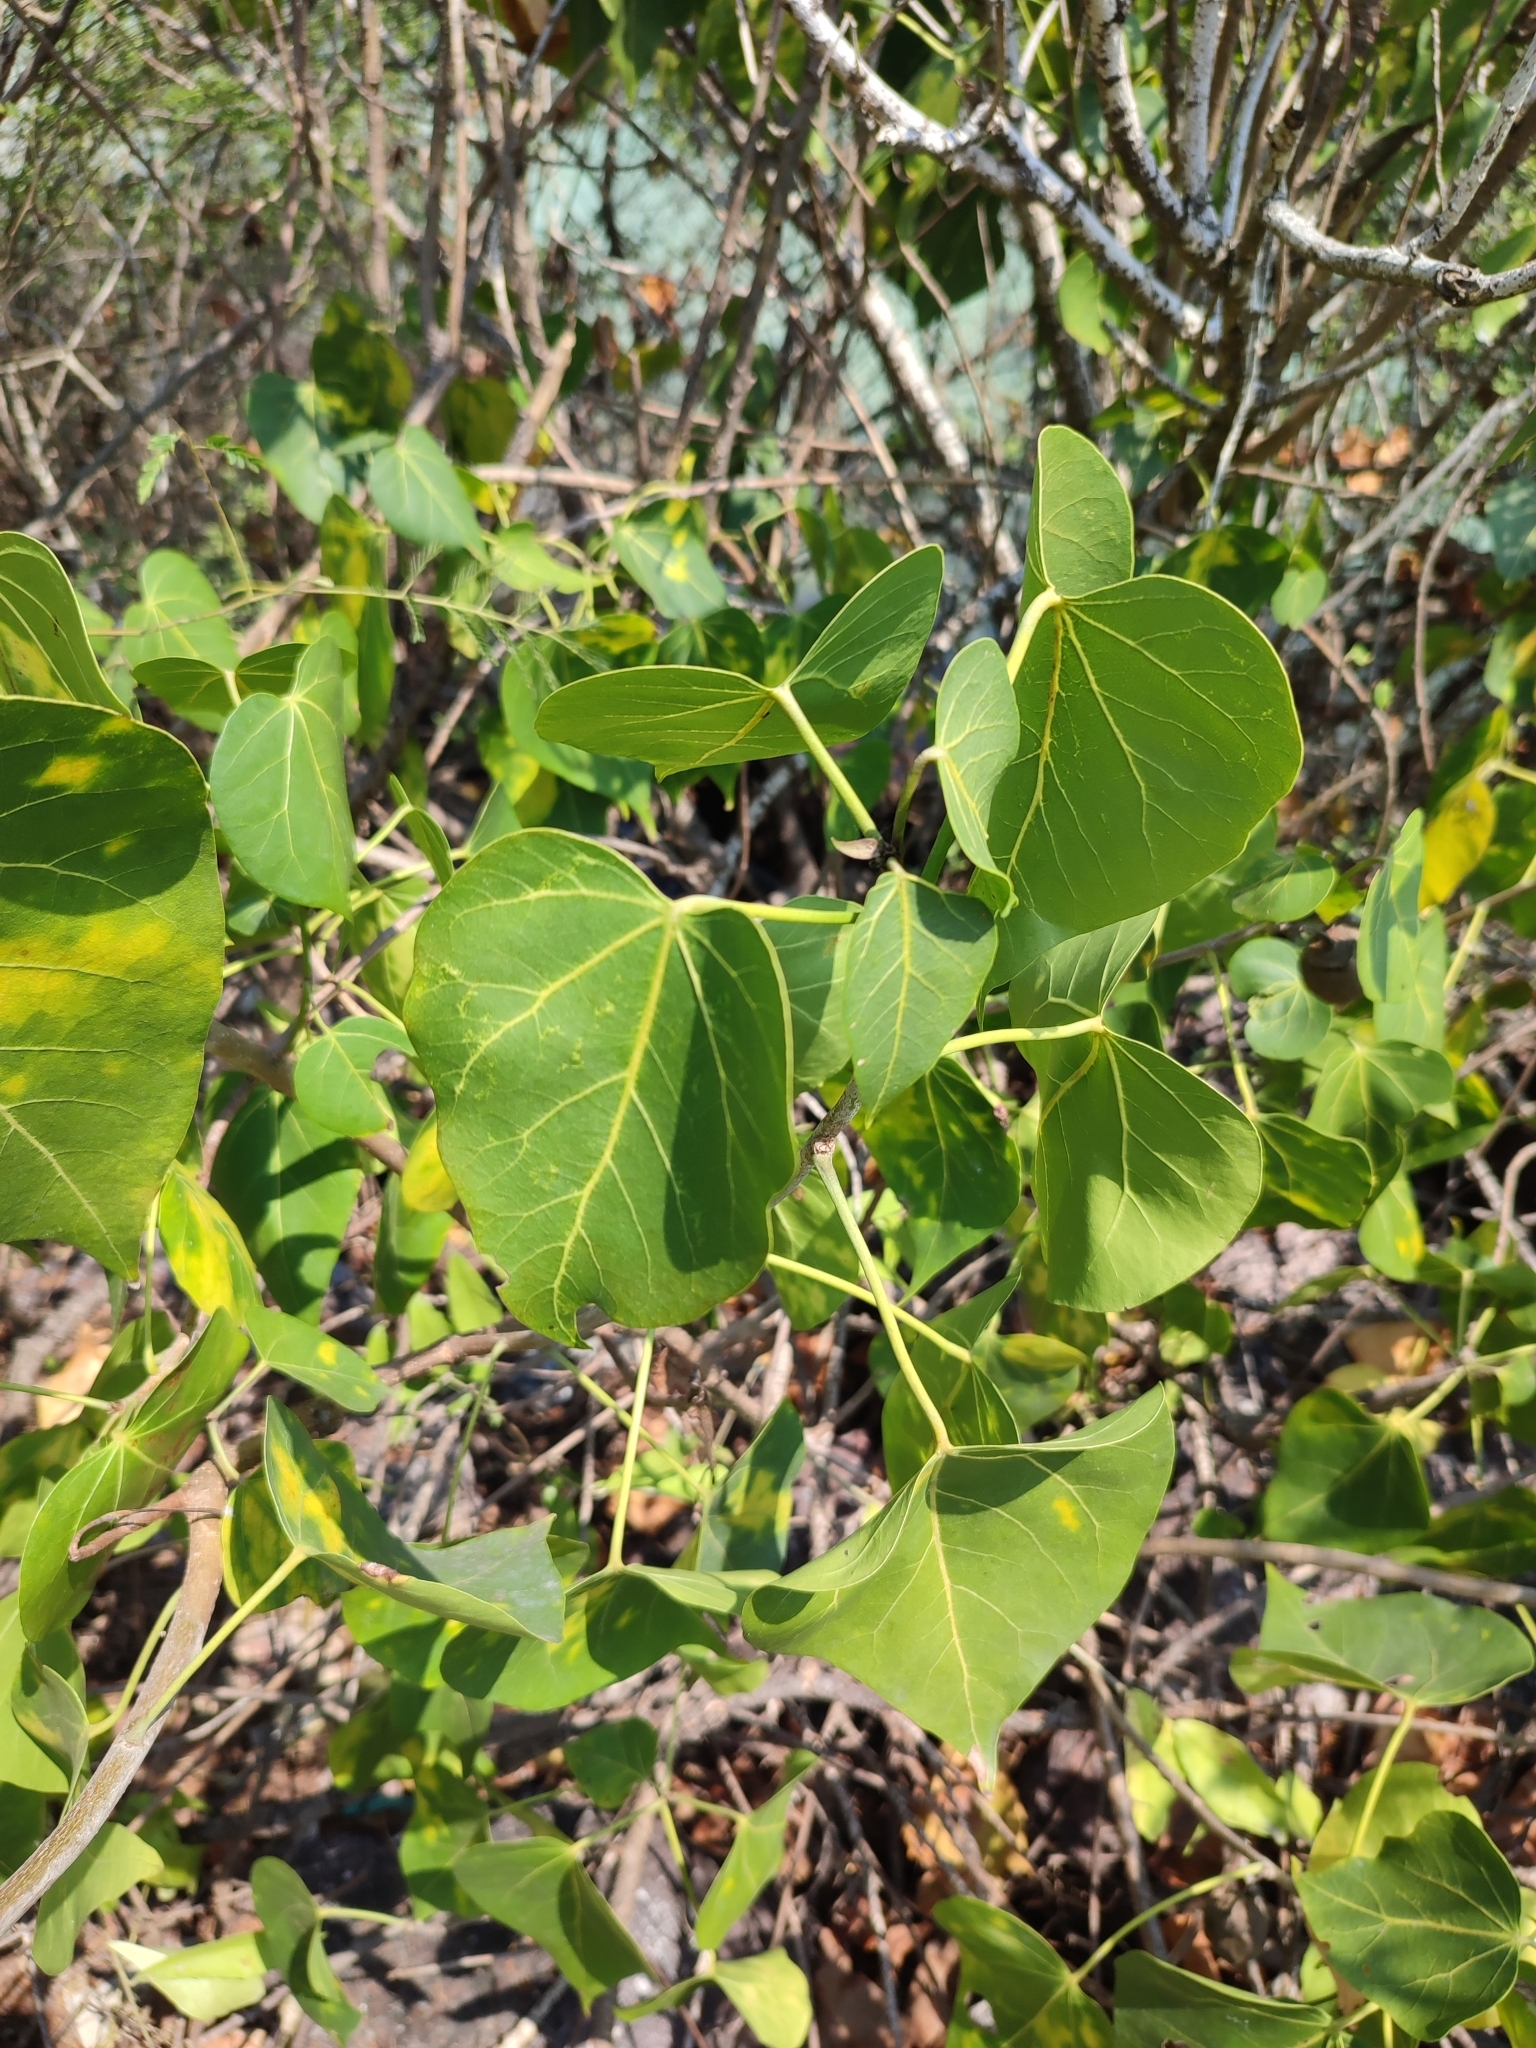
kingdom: Plantae
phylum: Tracheophyta
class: Magnoliopsida
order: Malvales
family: Malvaceae
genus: Thespesia
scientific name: Thespesia populnea
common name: Seaside mahoe
